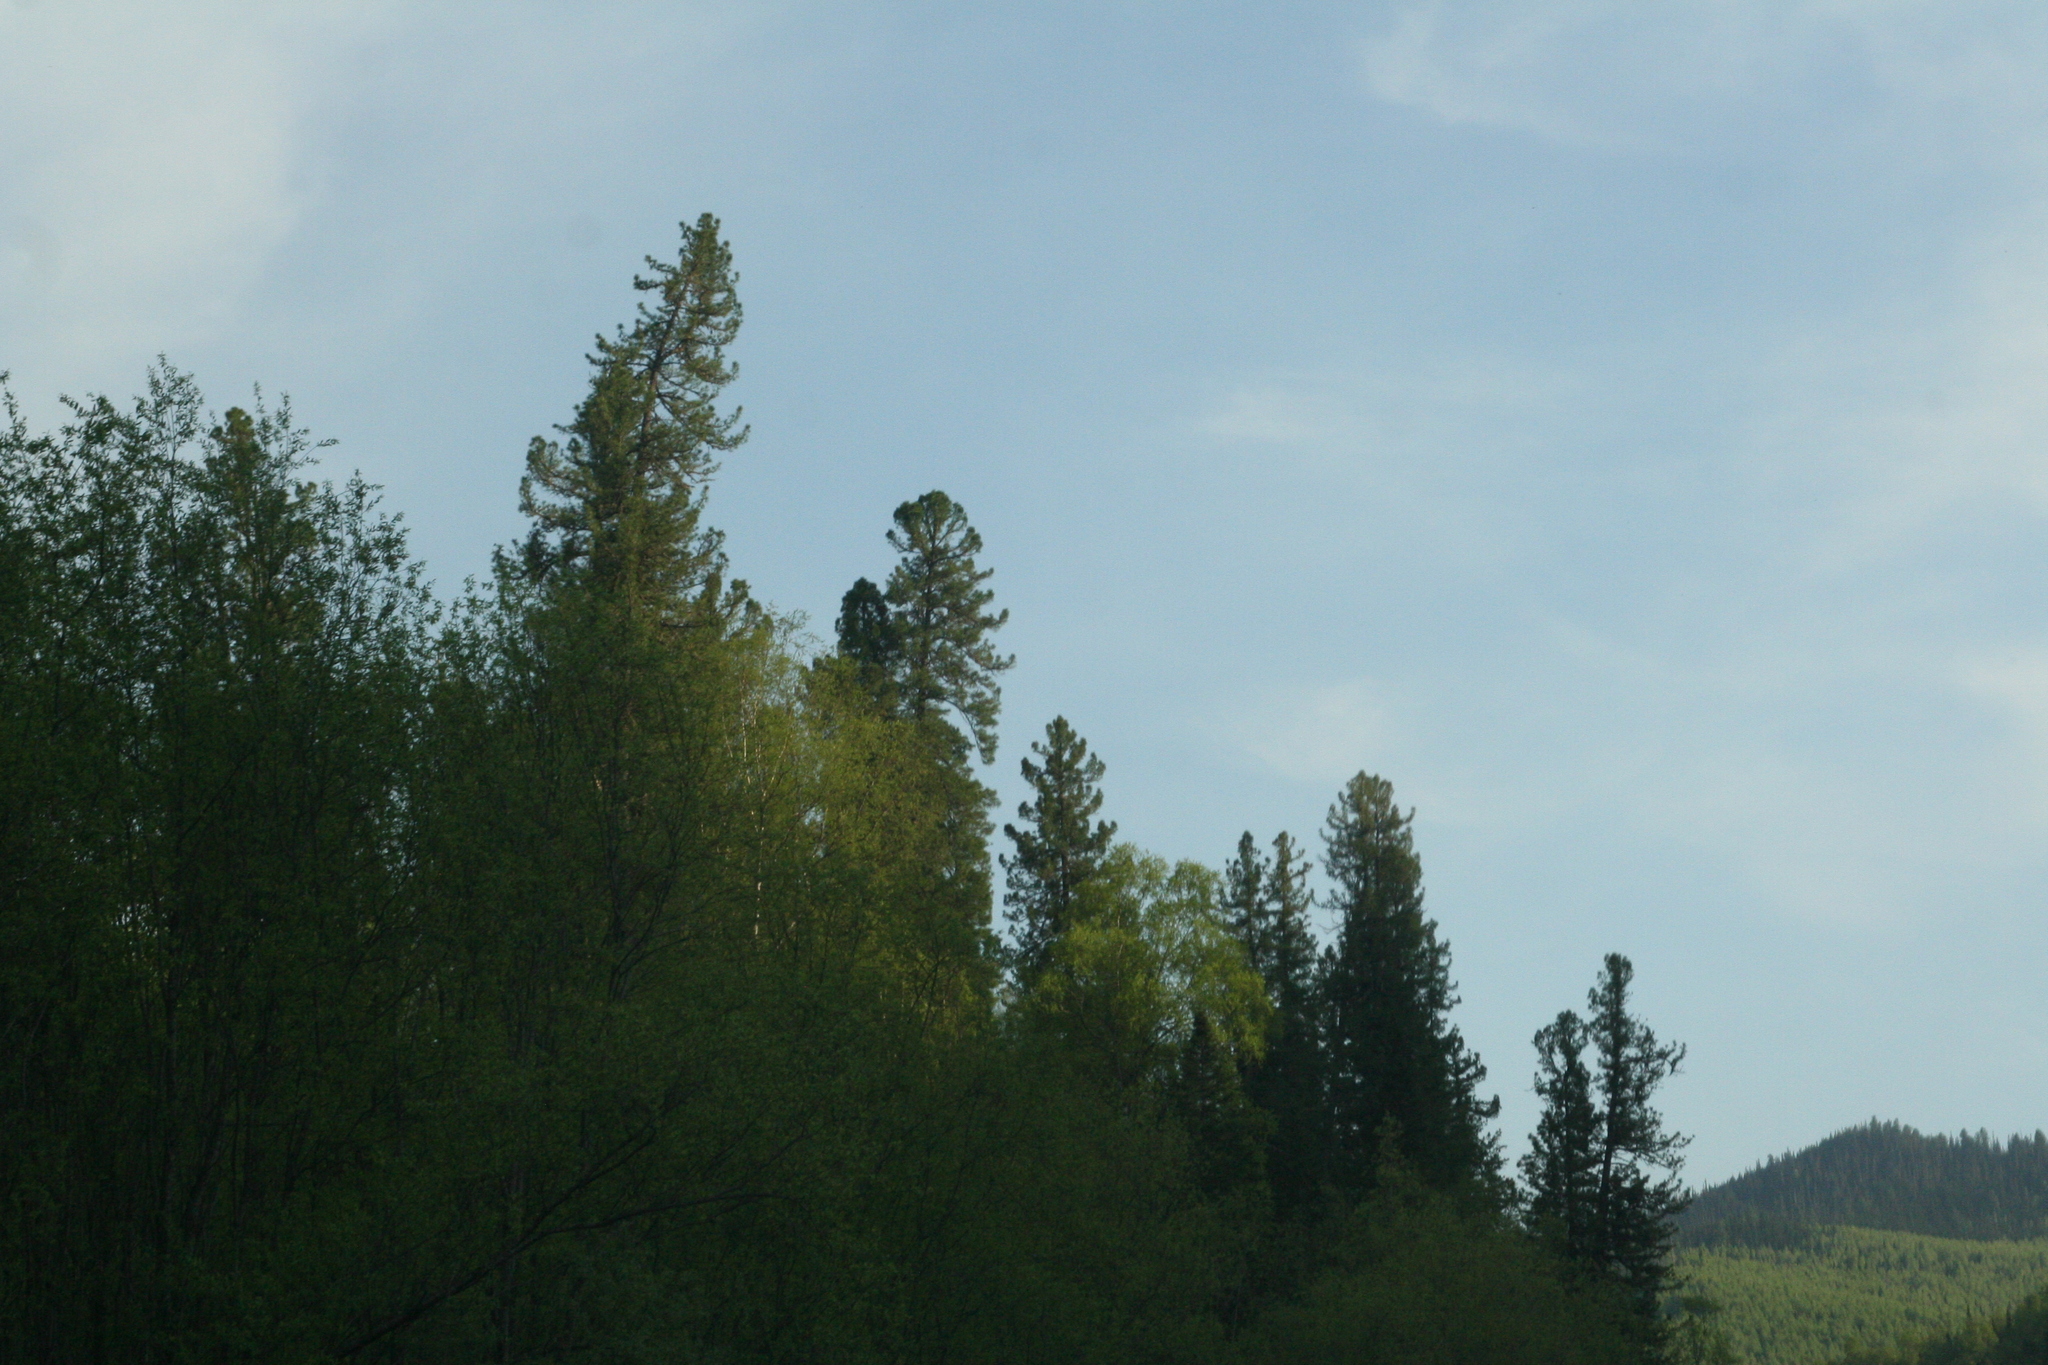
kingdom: Plantae
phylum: Tracheophyta
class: Pinopsida
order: Pinales
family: Pinaceae
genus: Pinus
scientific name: Pinus sibirica
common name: Siberian pine
